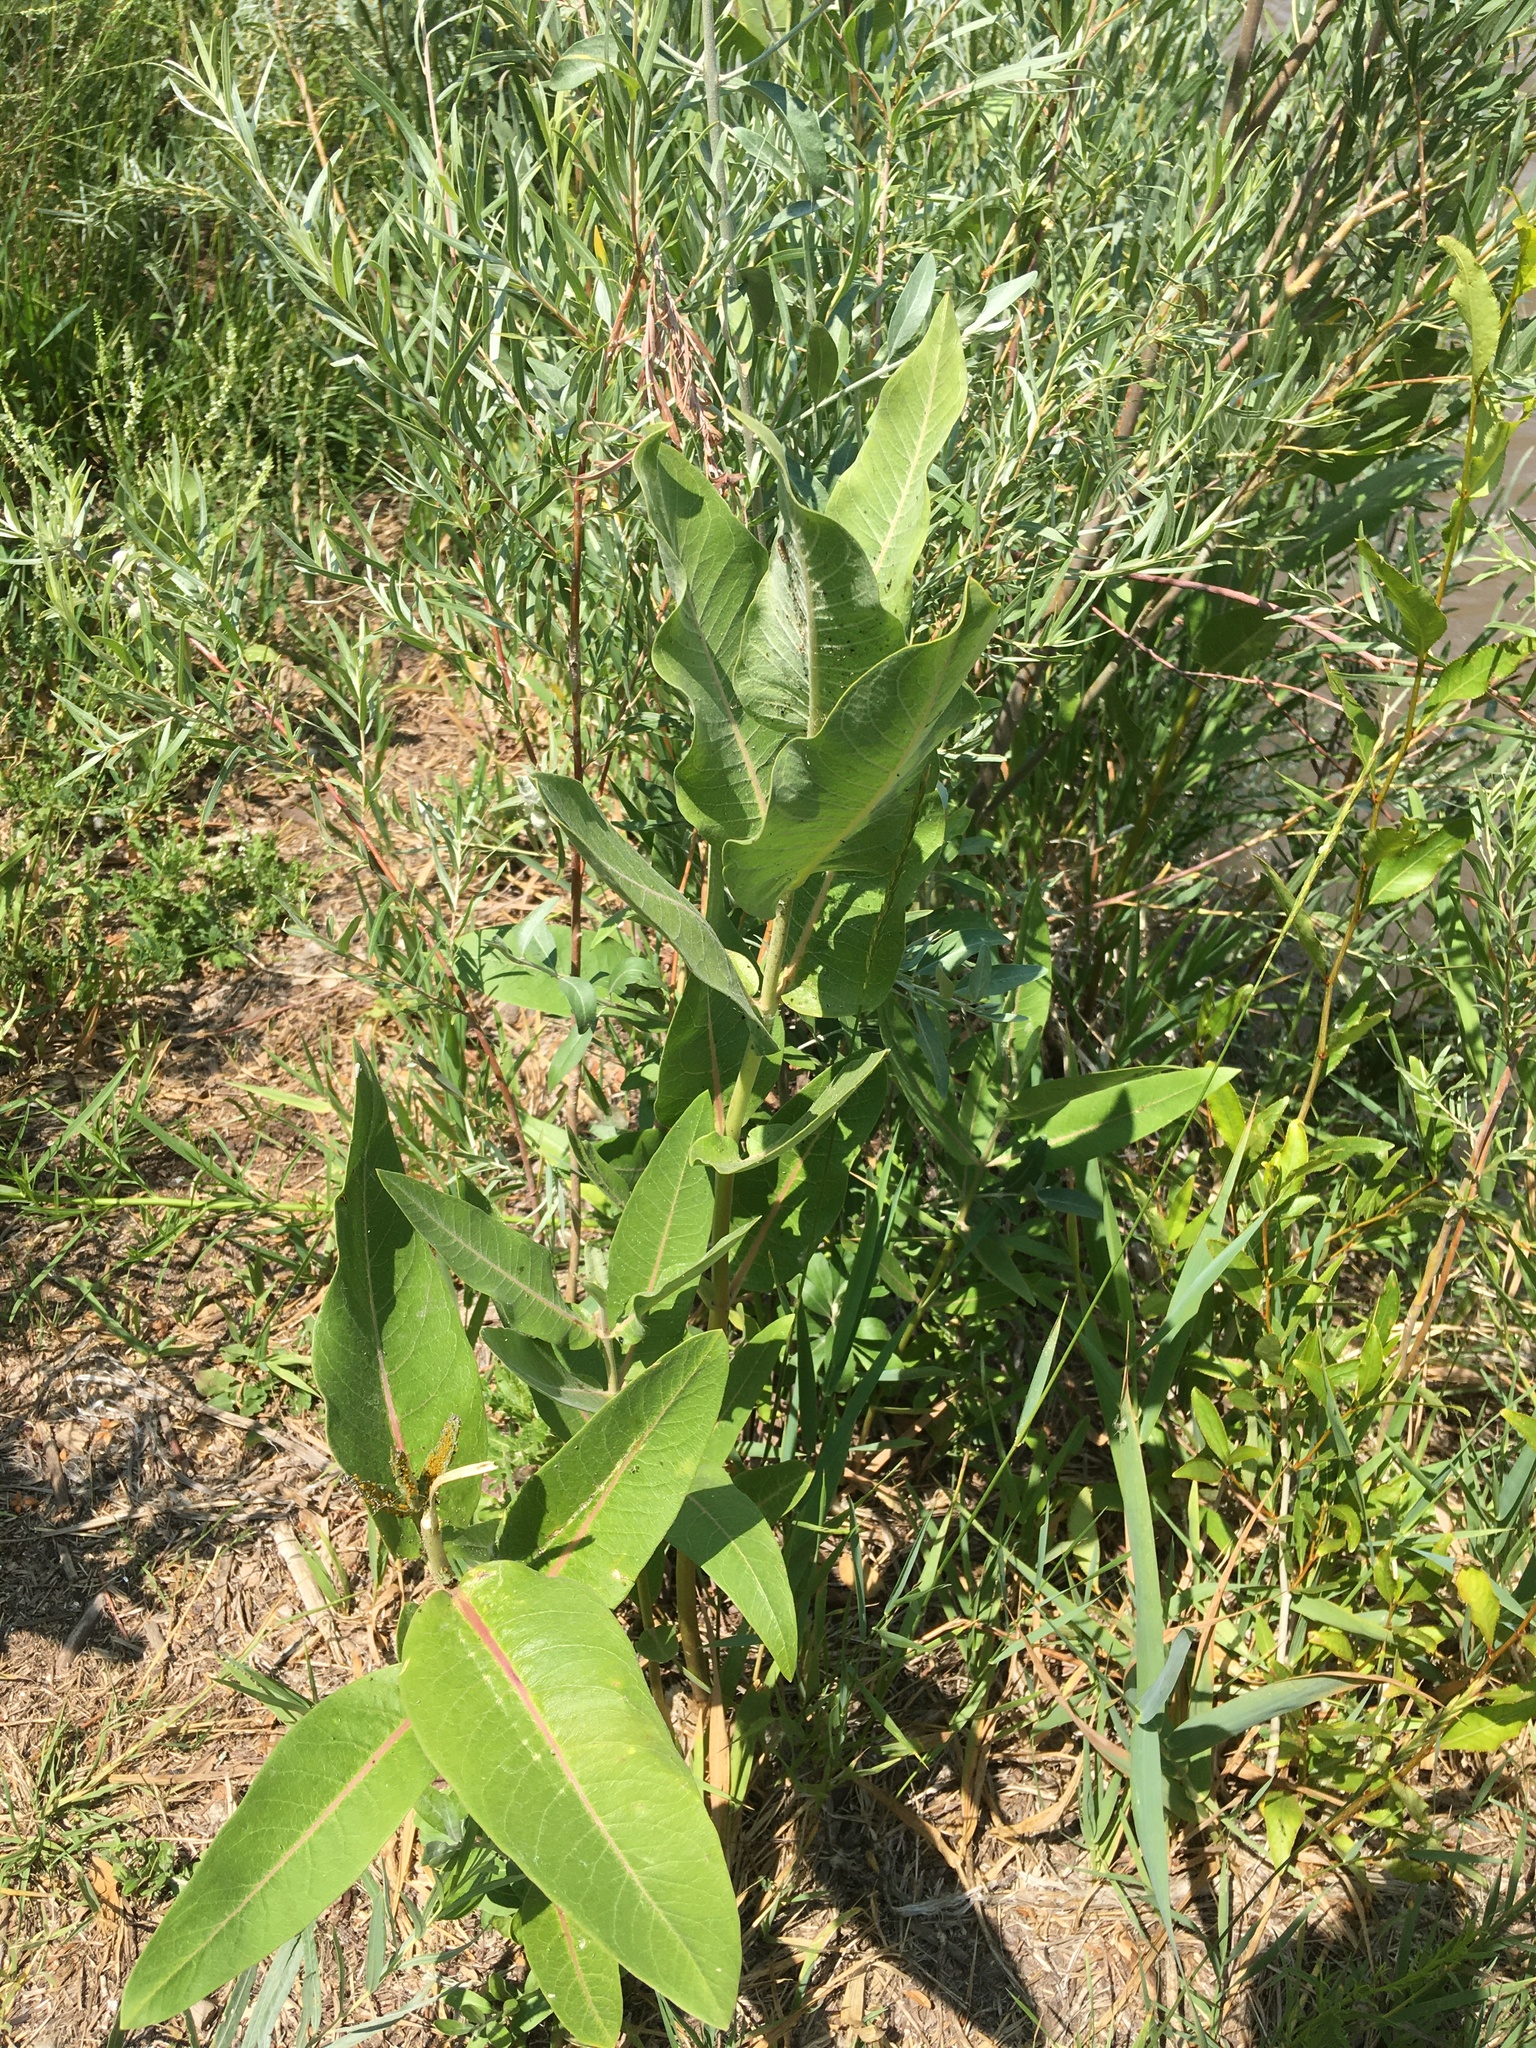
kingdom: Plantae
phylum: Tracheophyta
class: Magnoliopsida
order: Gentianales
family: Apocynaceae
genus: Asclepias
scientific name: Asclepias speciosa
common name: Showy milkweed
